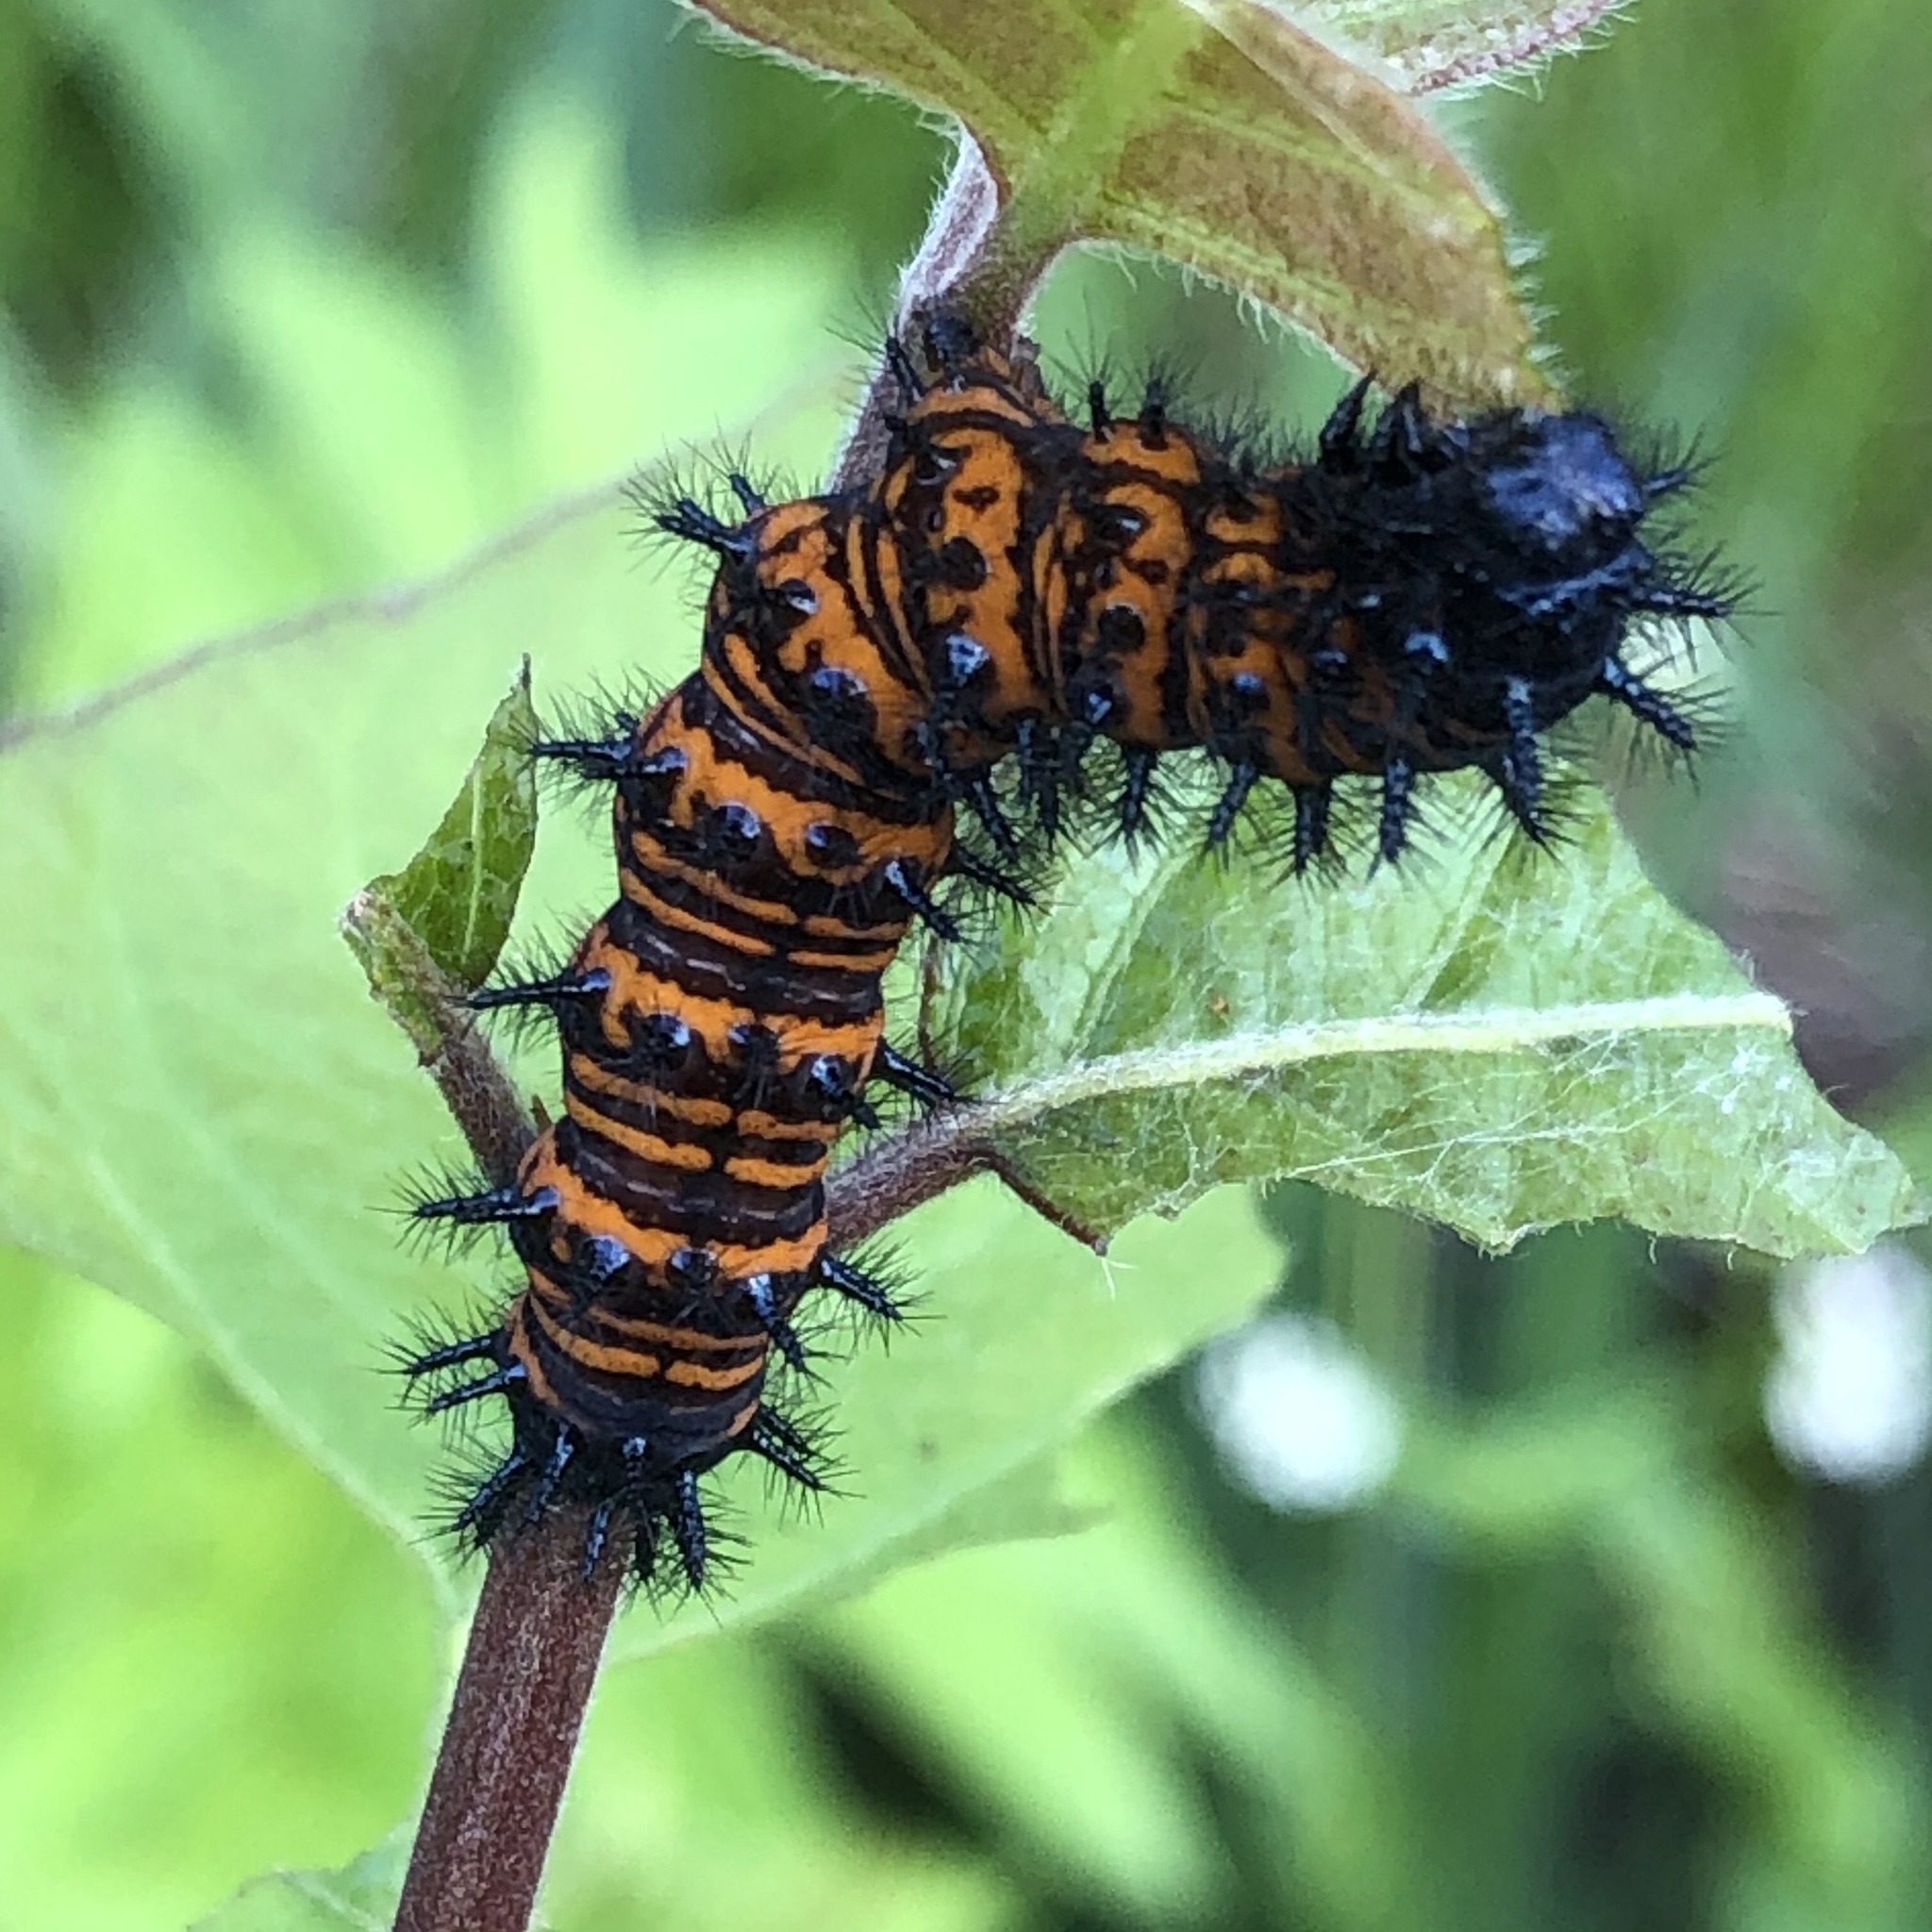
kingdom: Animalia
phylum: Arthropoda
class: Insecta
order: Lepidoptera
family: Nymphalidae
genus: Euphydryas
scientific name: Euphydryas phaeton
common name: Baltimore checkerspot
